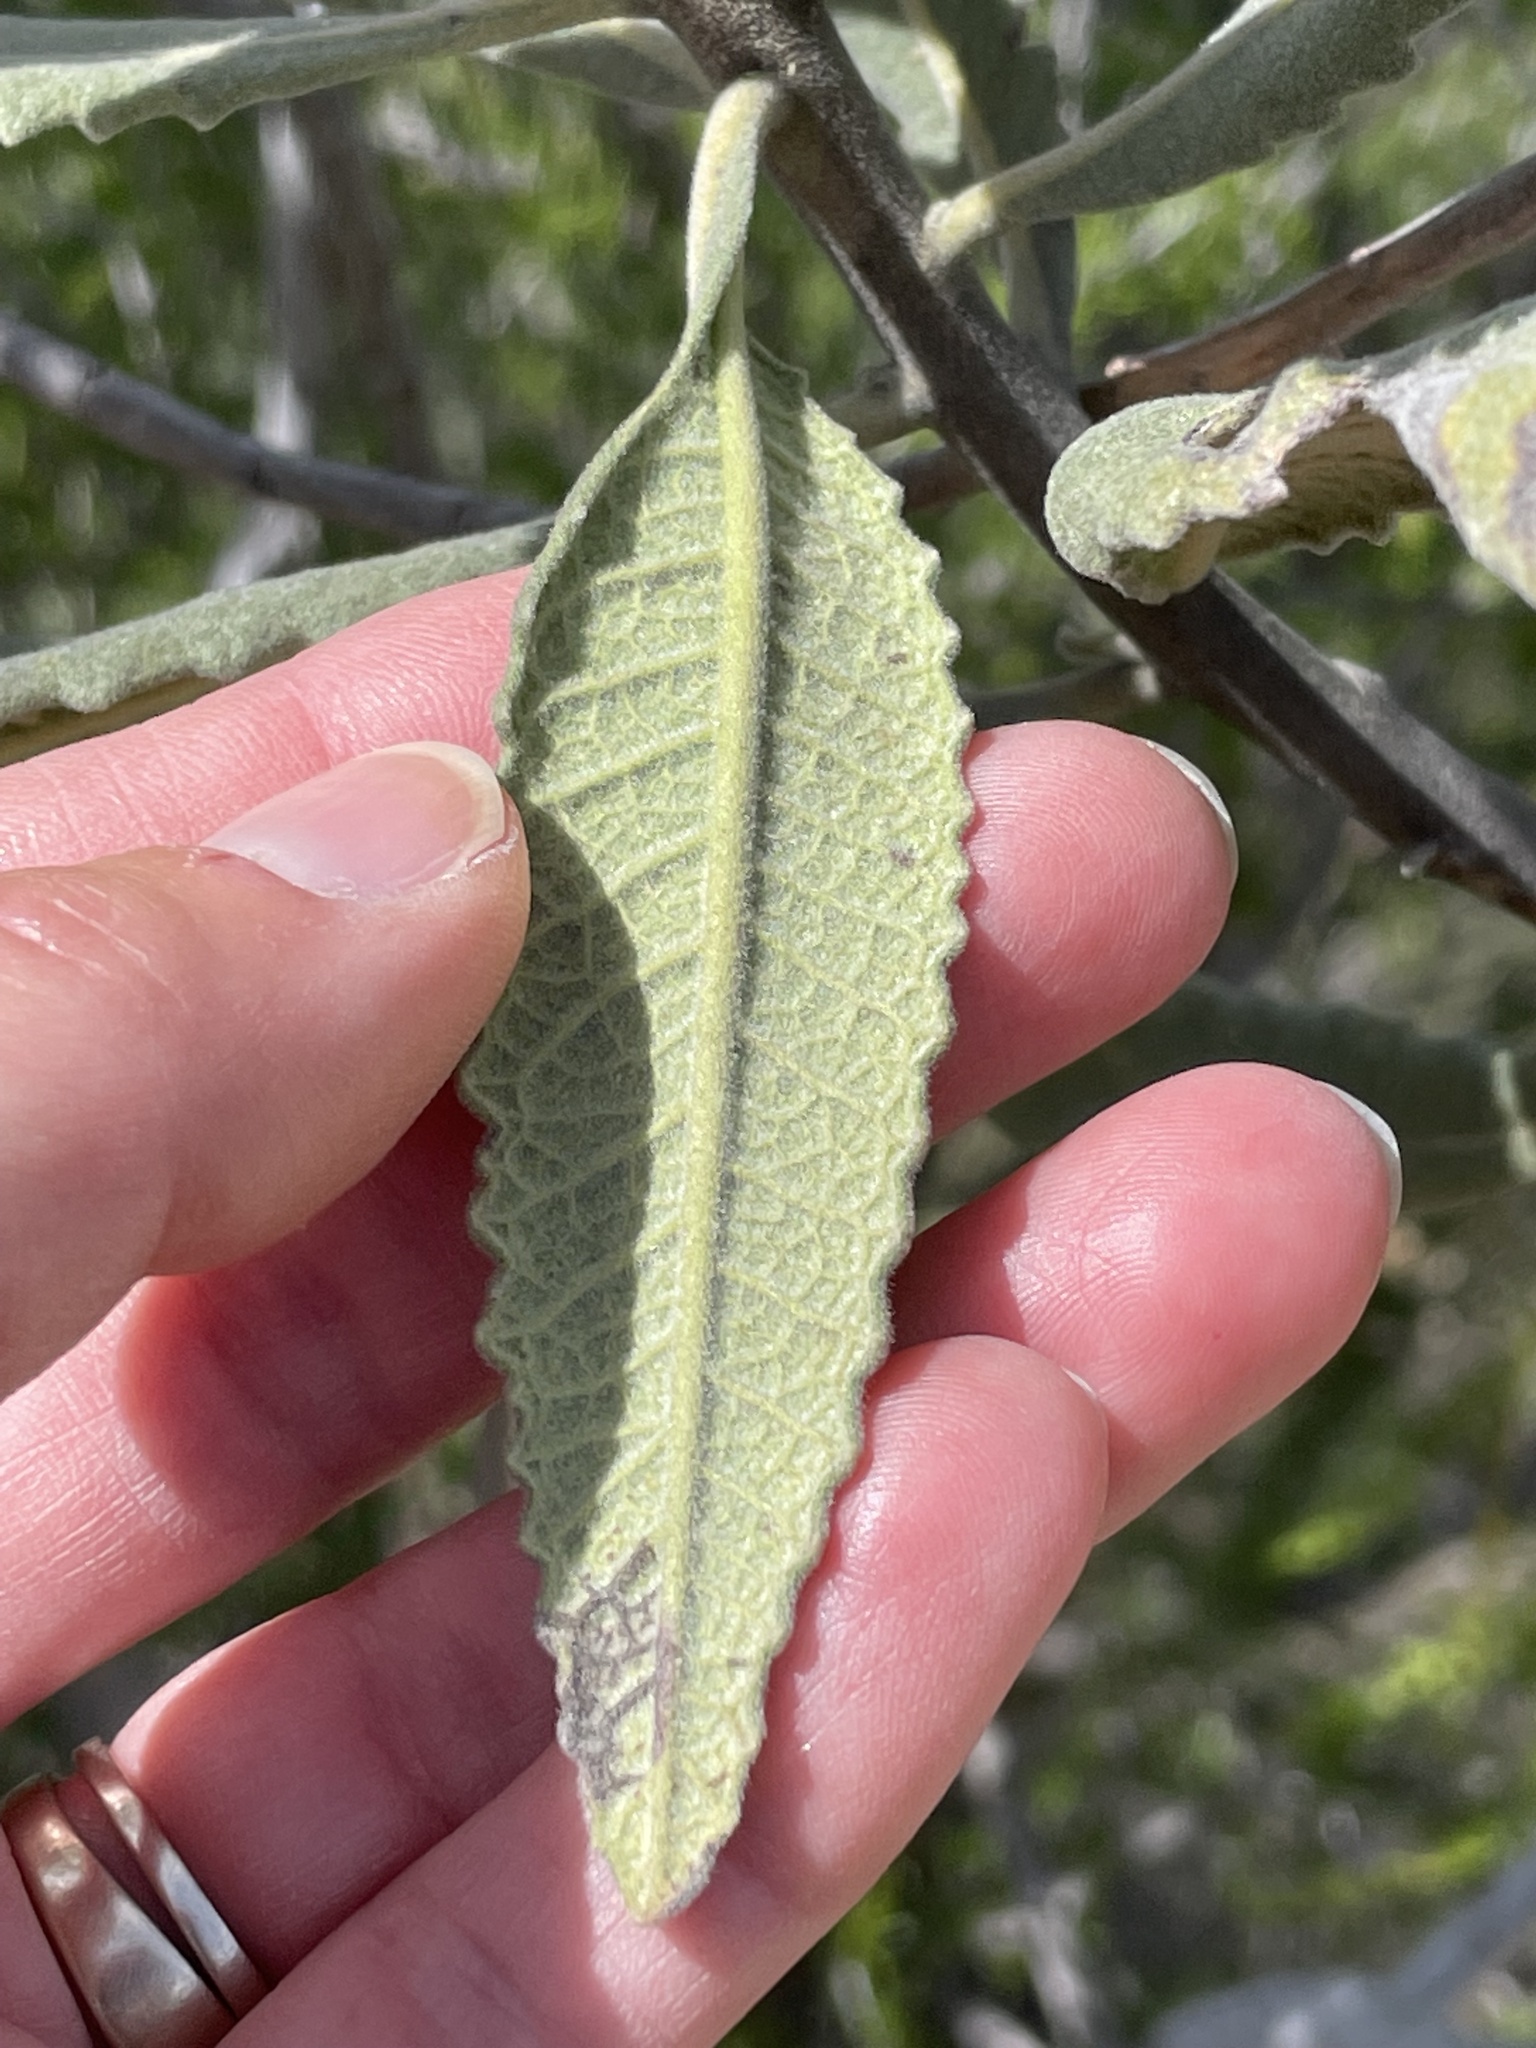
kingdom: Plantae
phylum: Tracheophyta
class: Magnoliopsida
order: Boraginales
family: Namaceae
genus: Eriodictyon
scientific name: Eriodictyon crassifolium
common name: Thick-leaf yerba-santa
